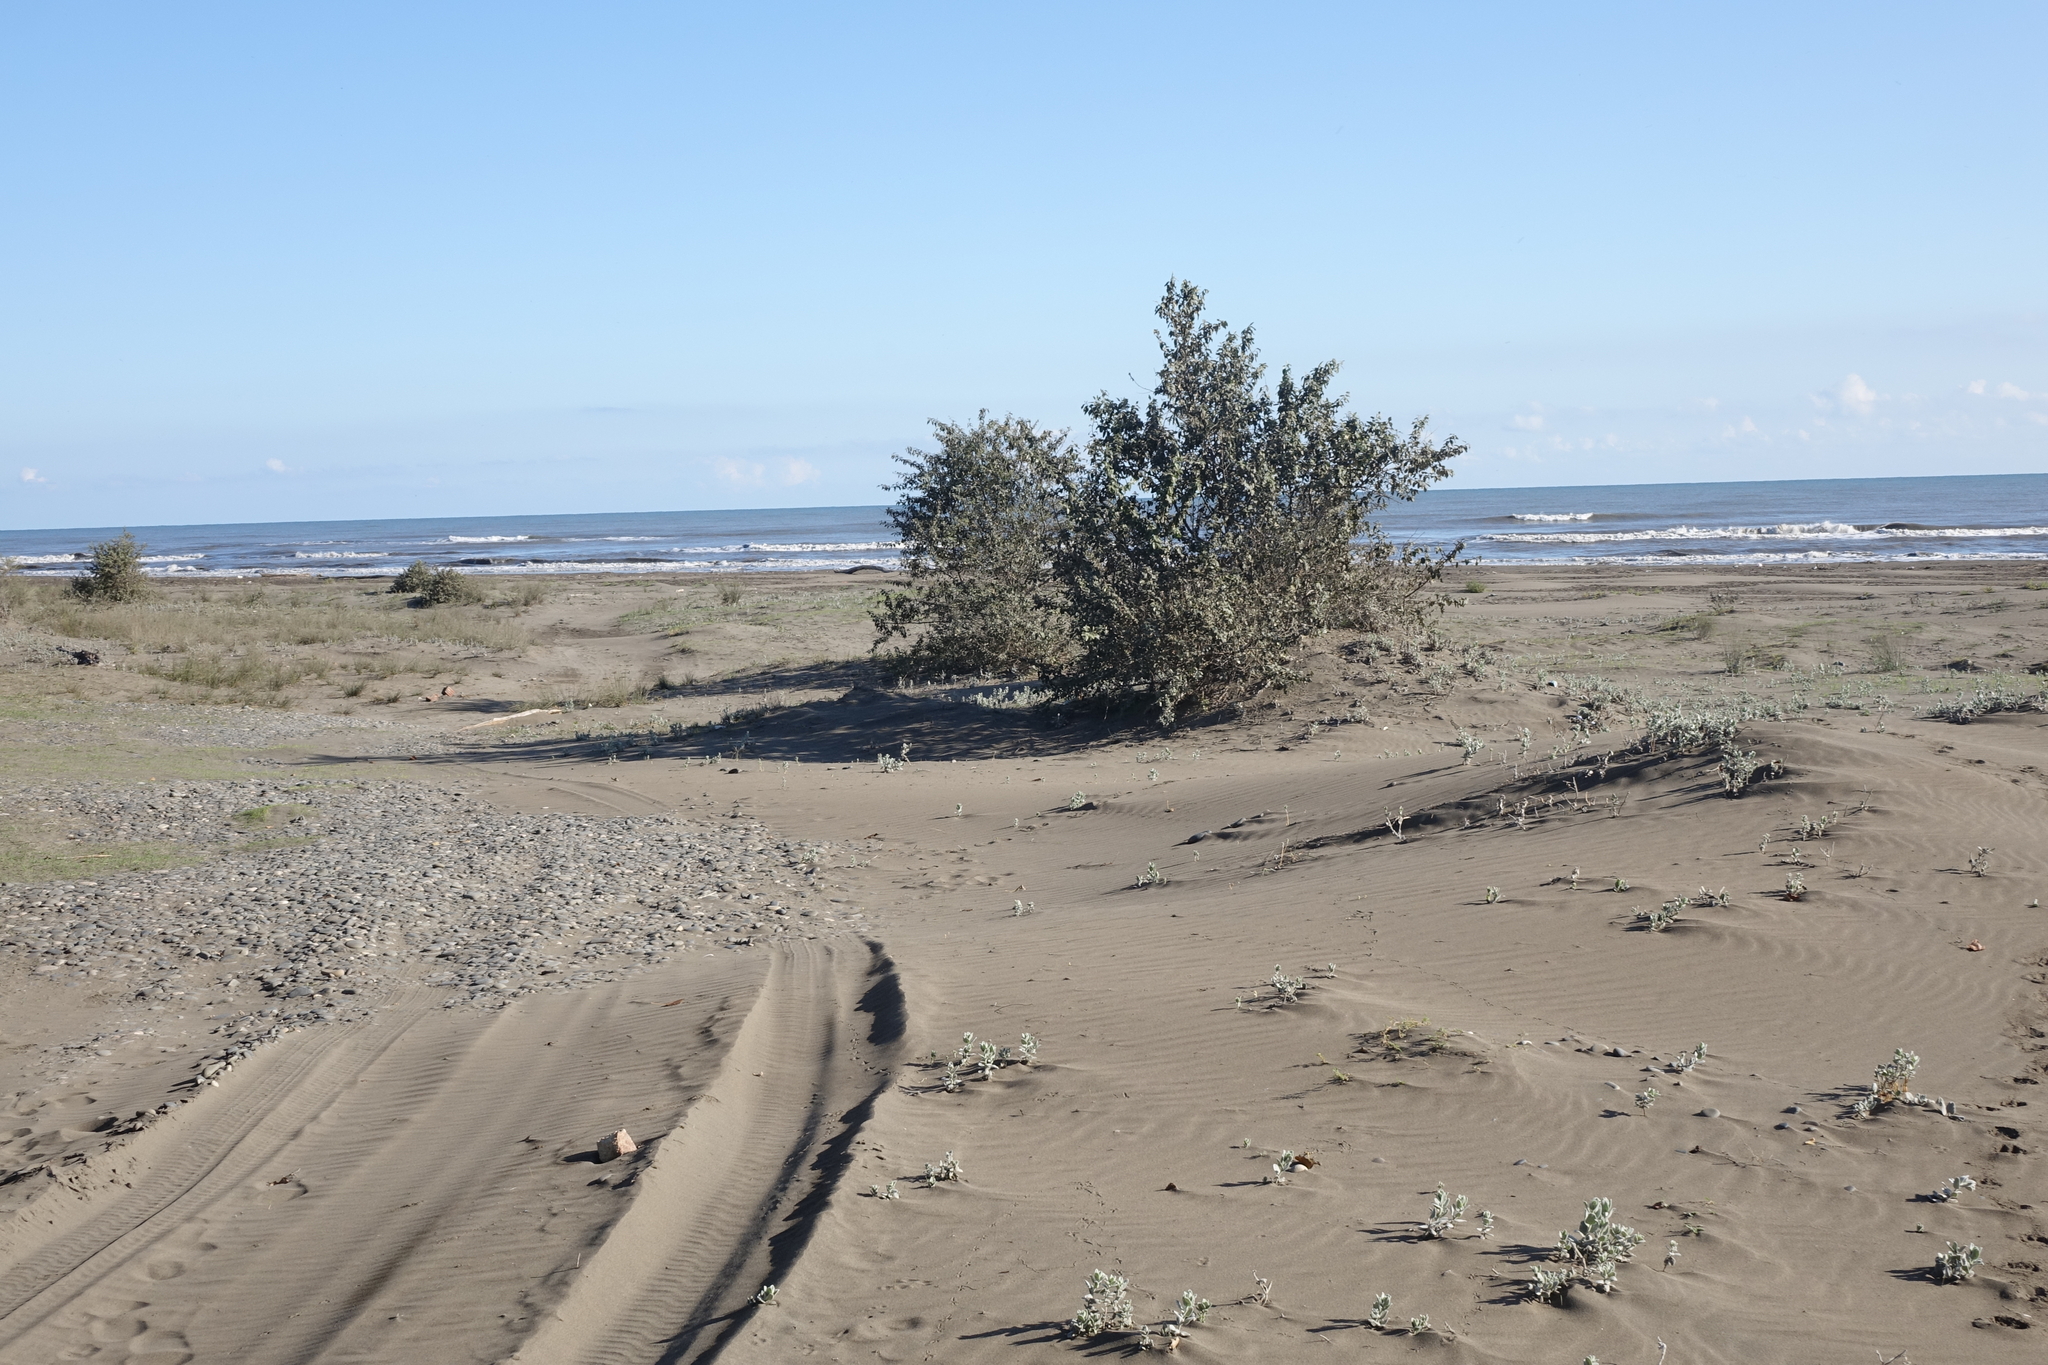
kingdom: Plantae
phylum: Tracheophyta
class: Magnoliopsida
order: Rosales
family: Elaeagnaceae
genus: Elaeagnus
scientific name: Elaeagnus angustifolia
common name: Russian olive
